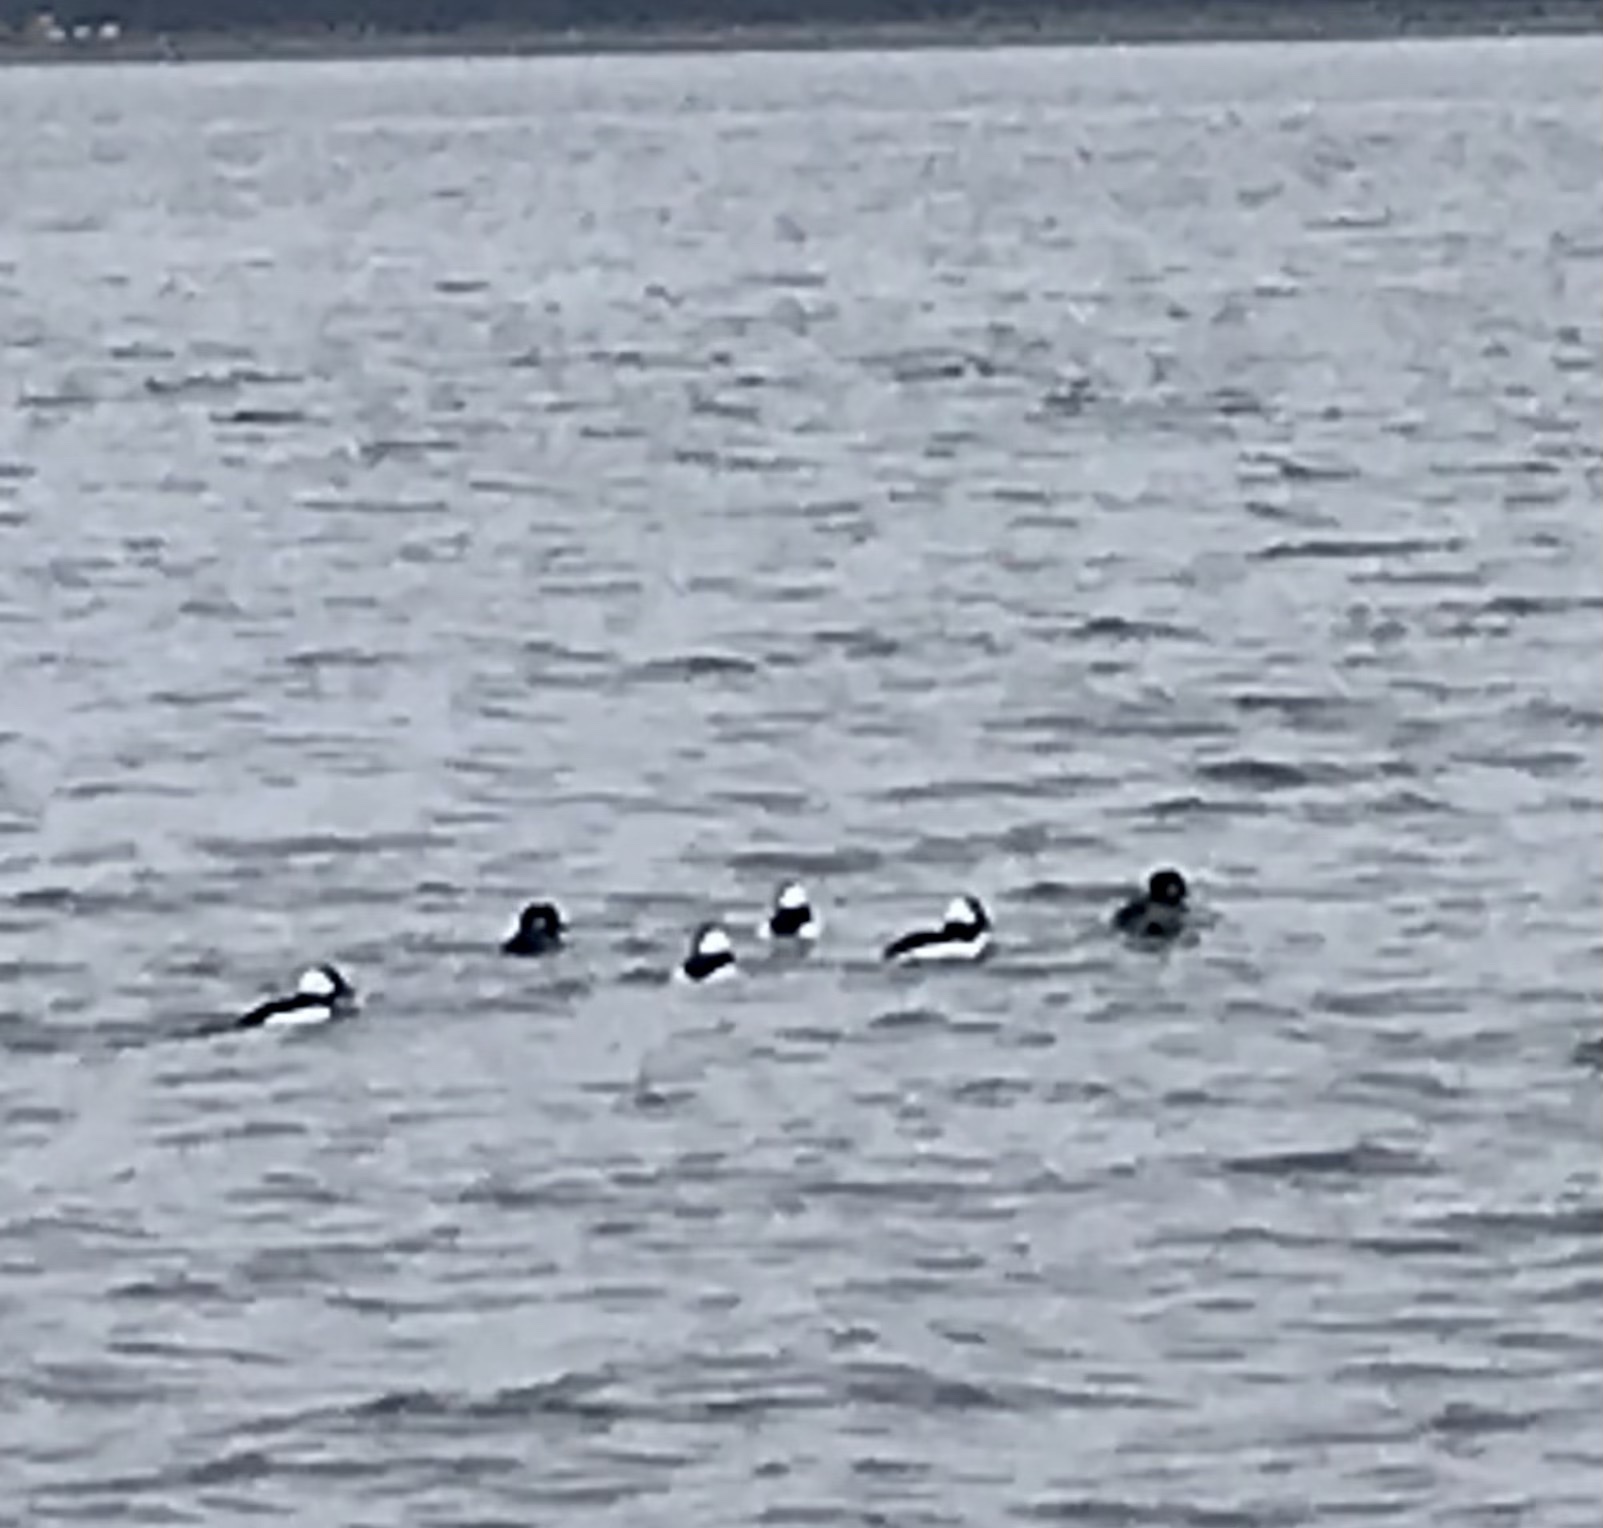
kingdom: Animalia
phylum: Chordata
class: Aves
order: Anseriformes
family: Anatidae
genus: Bucephala
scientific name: Bucephala albeola
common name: Bufflehead
